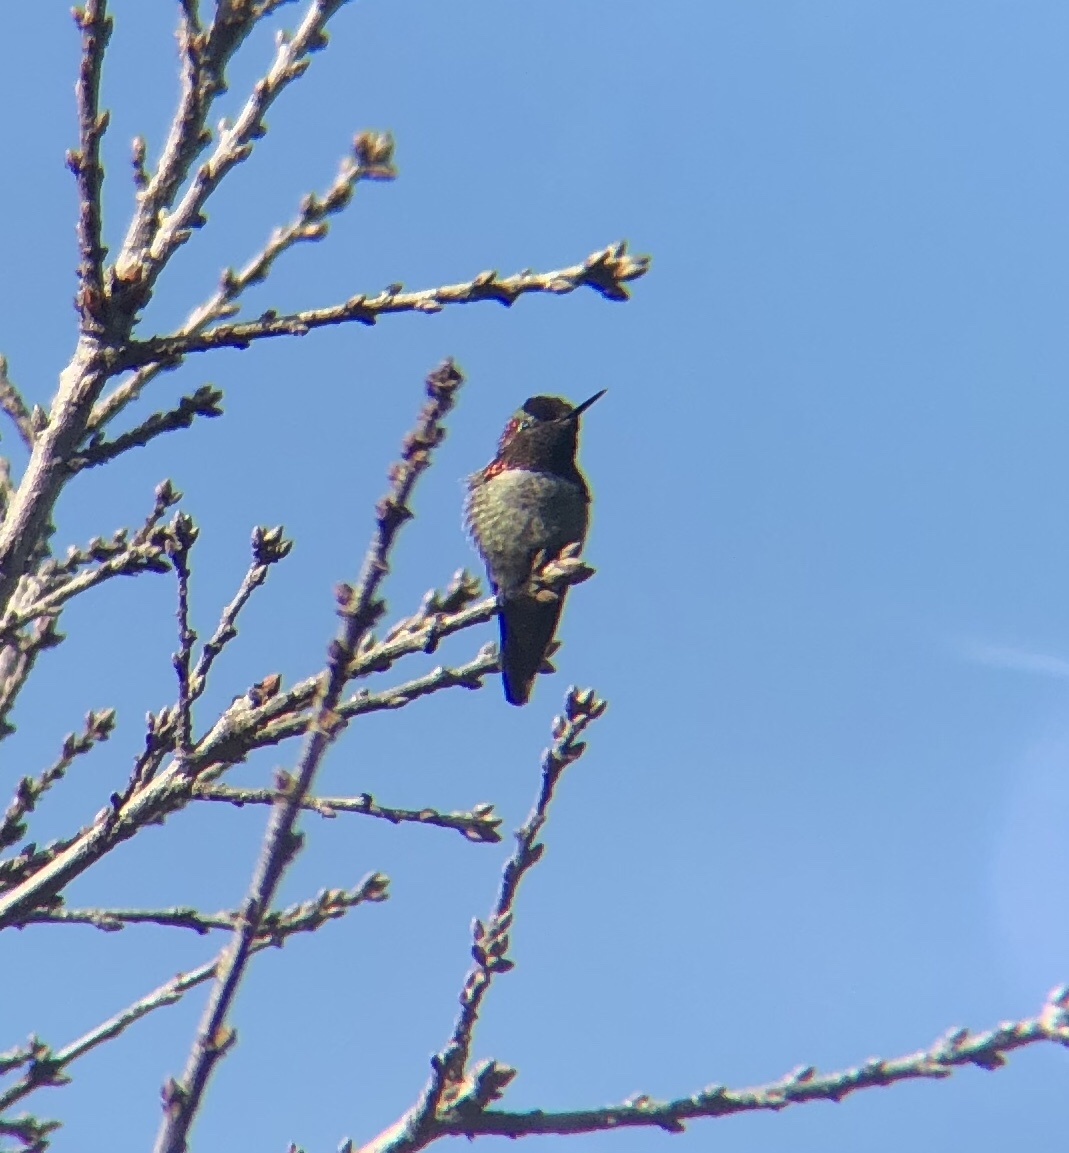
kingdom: Animalia
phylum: Chordata
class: Aves
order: Apodiformes
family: Trochilidae
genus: Calypte
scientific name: Calypte anna
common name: Anna's hummingbird
